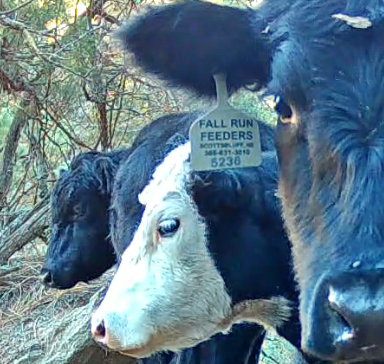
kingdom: Animalia
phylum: Chordata
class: Mammalia
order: Artiodactyla
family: Bovidae
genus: Bos
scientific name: Bos taurus
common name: Domesticated cattle
